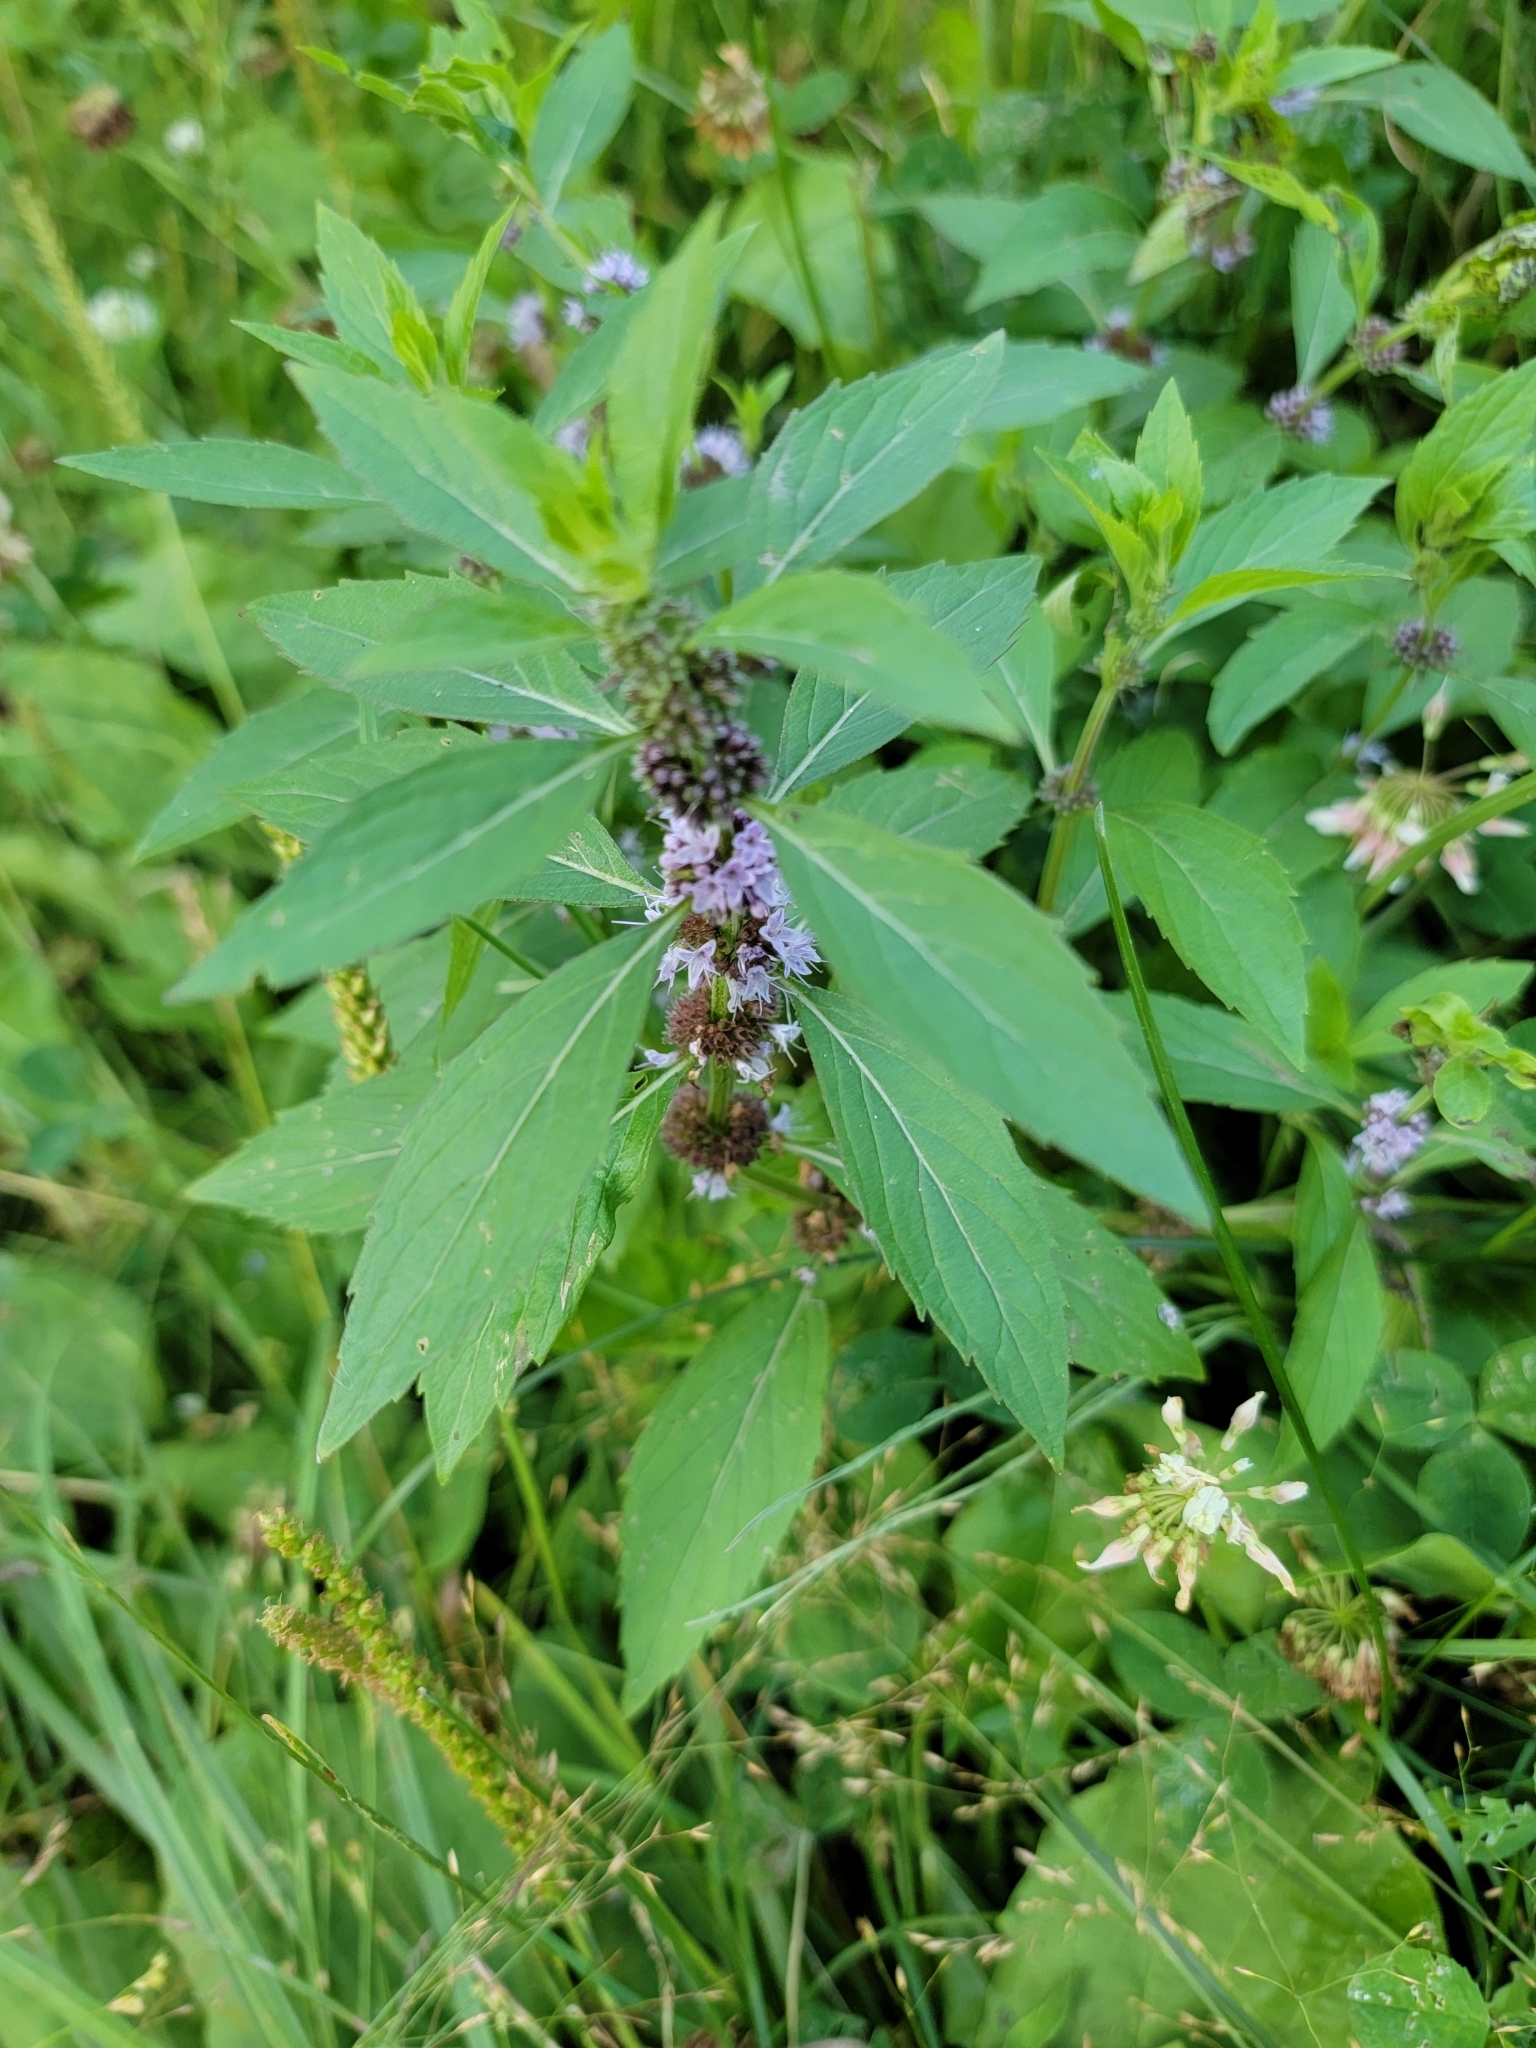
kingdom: Plantae
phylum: Tracheophyta
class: Magnoliopsida
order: Lamiales
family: Lamiaceae
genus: Mentha
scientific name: Mentha canadensis
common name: American corn mint
